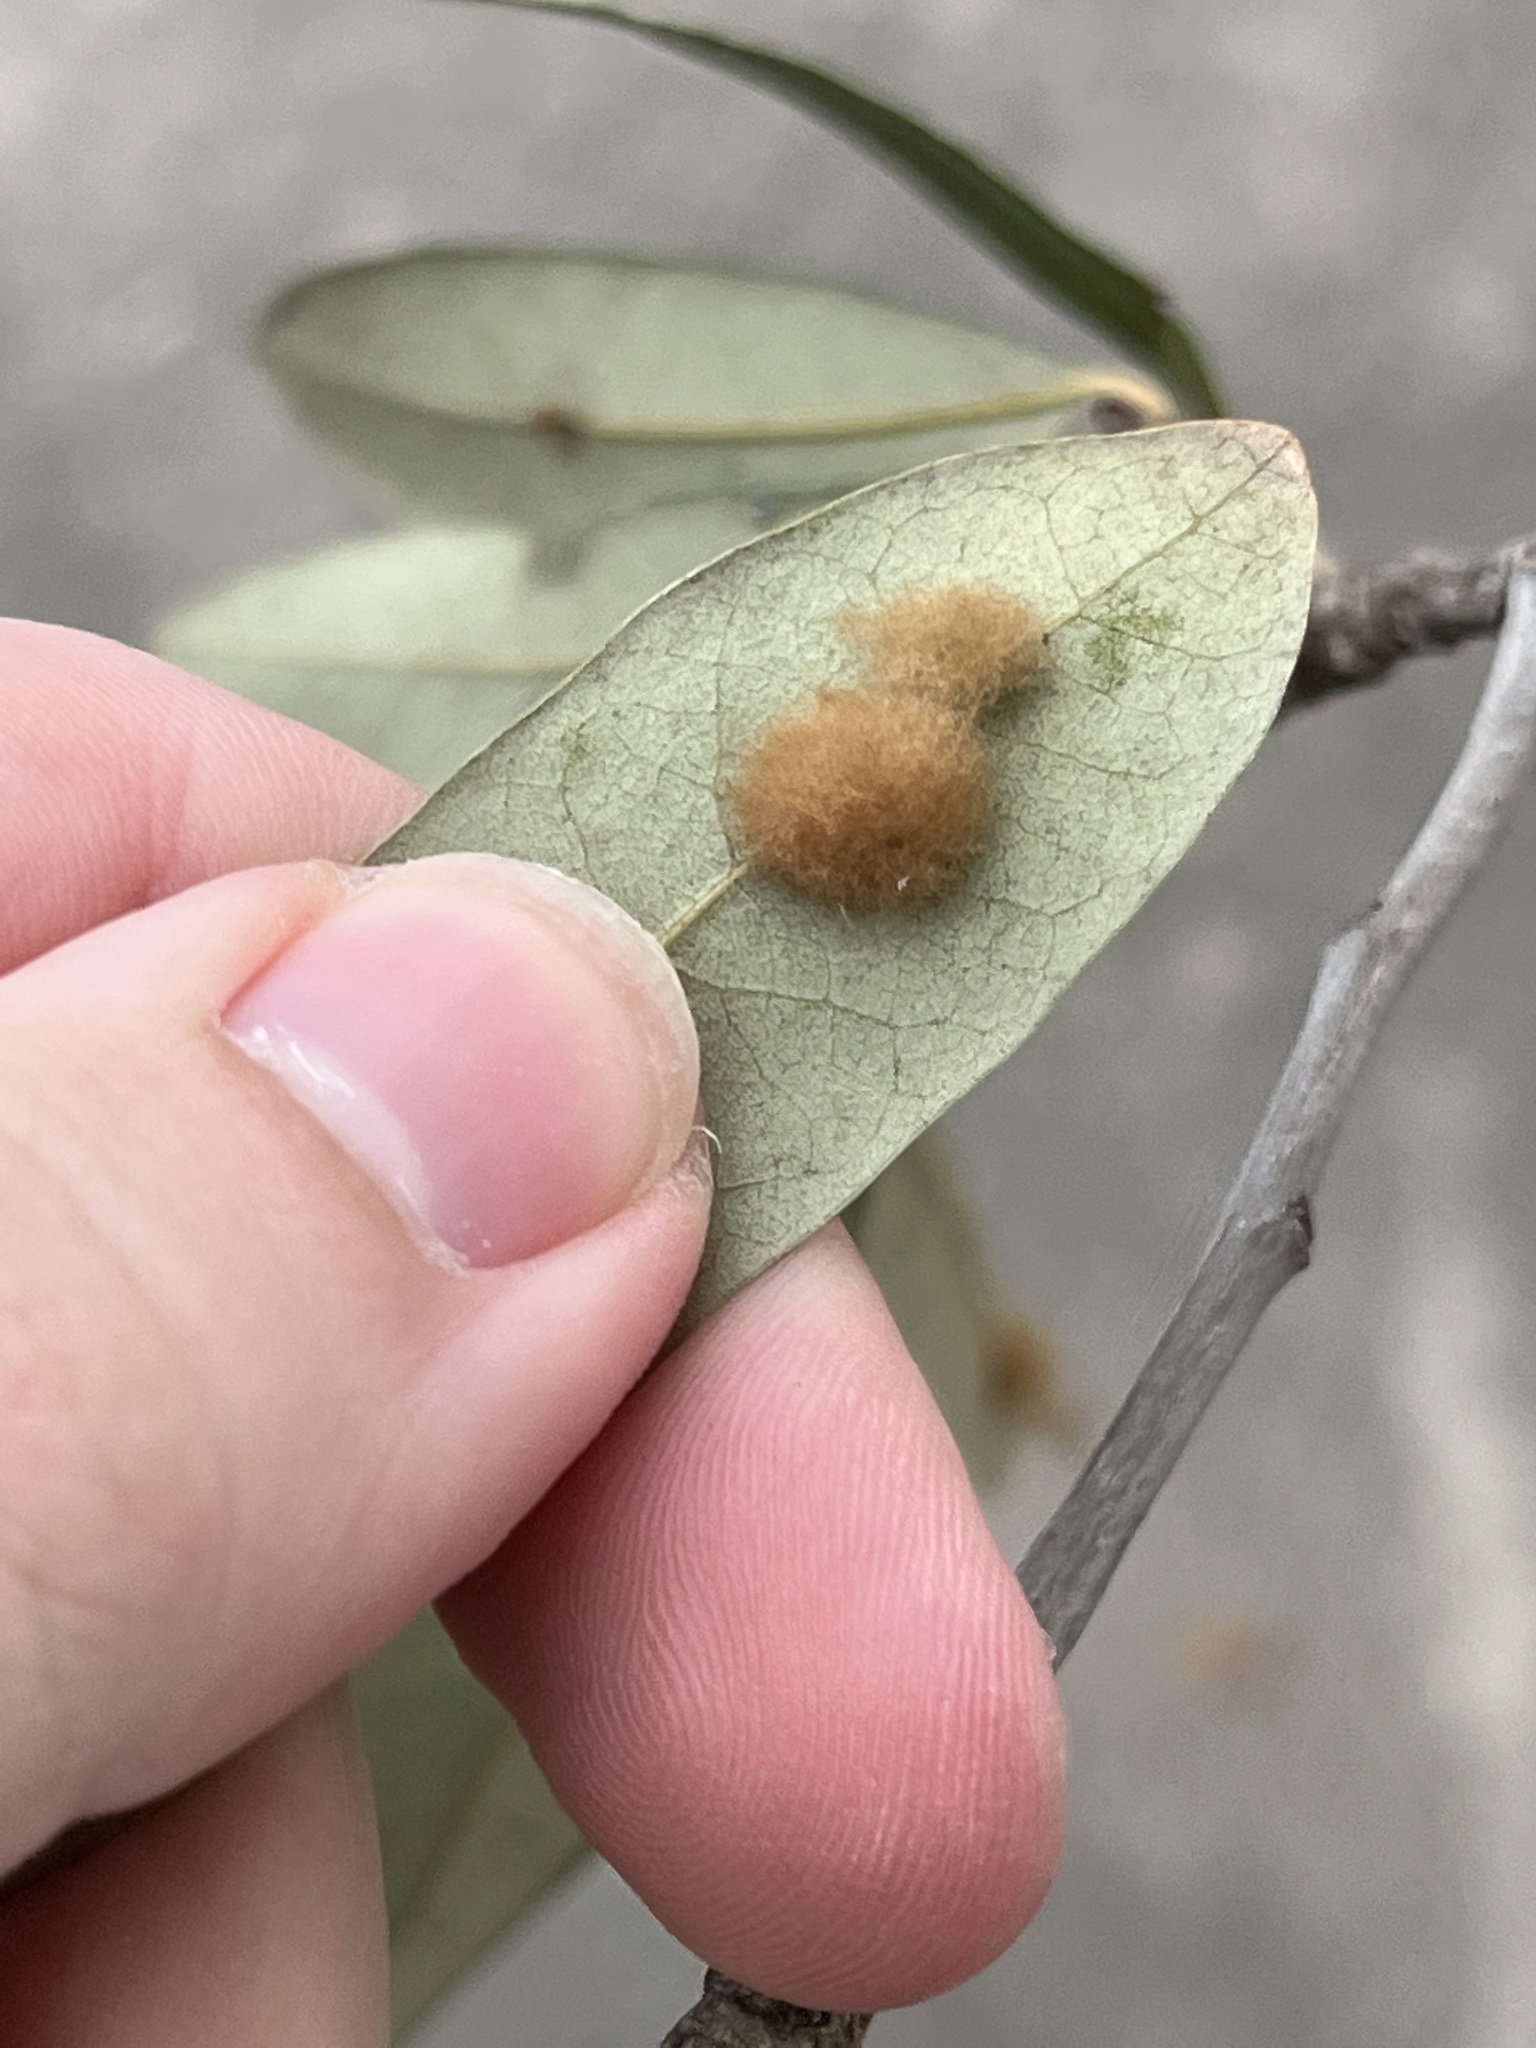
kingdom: Animalia
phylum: Arthropoda
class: Insecta
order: Hymenoptera
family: Cynipidae
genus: Andricus
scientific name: Andricus Druon quercuslanigerum
